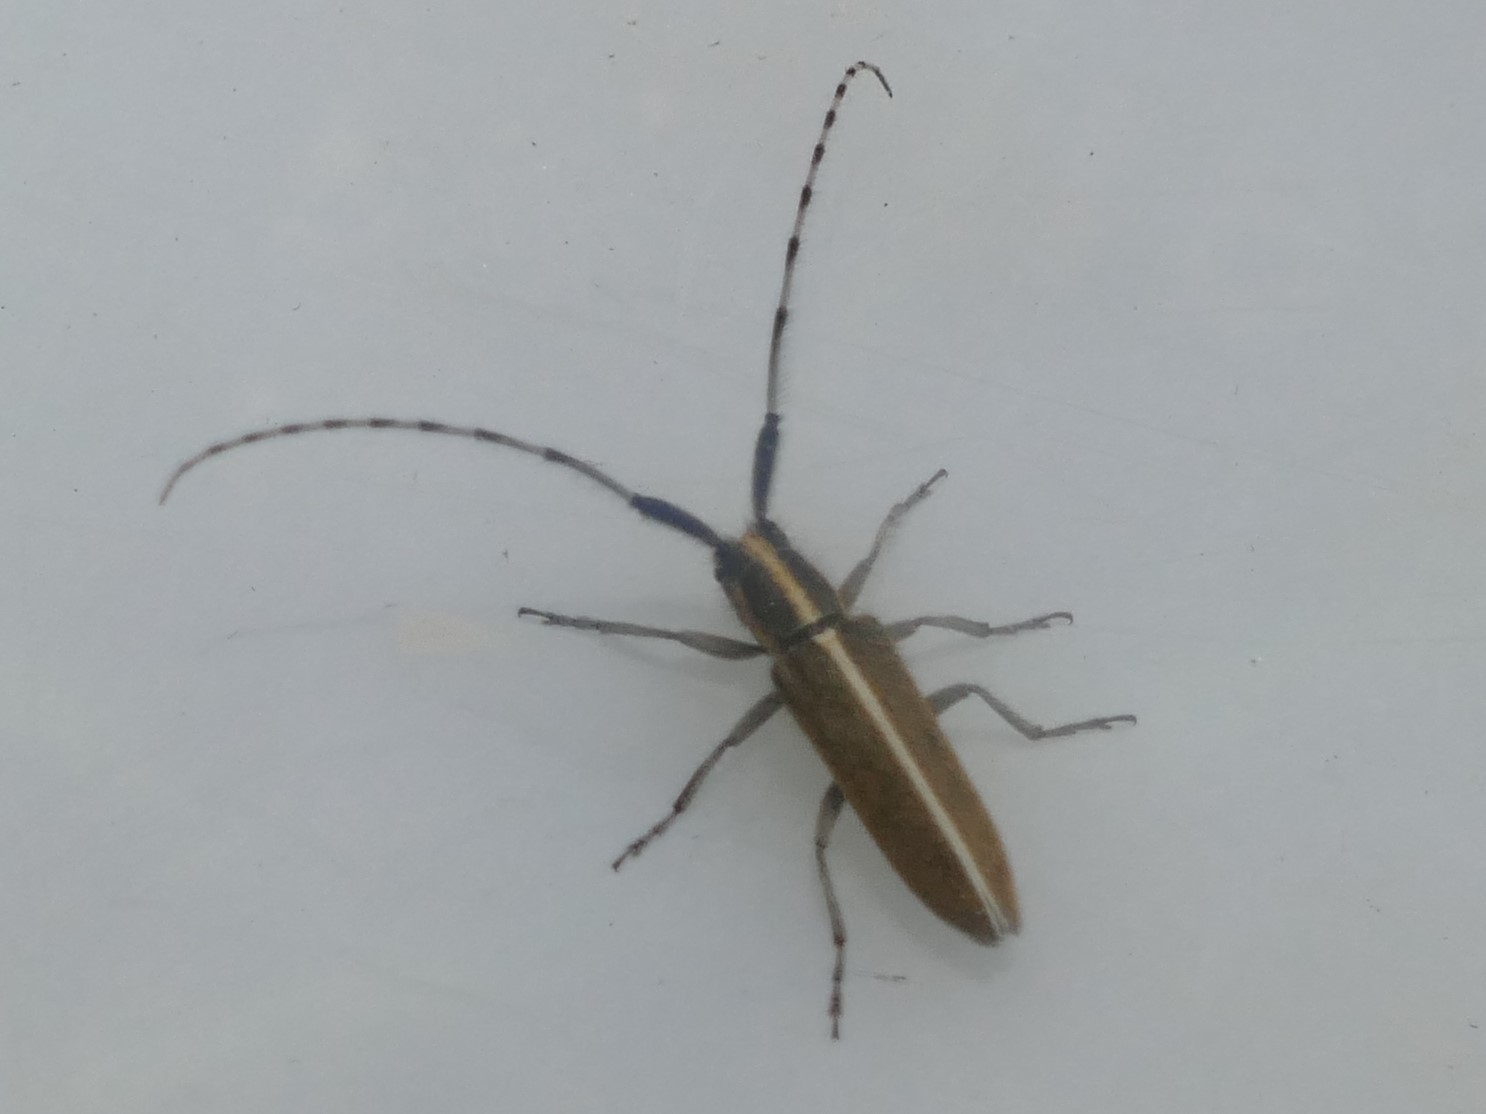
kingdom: Animalia
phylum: Arthropoda
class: Insecta
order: Coleoptera
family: Cerambycidae
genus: Agapanthia
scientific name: Agapanthia cardui
